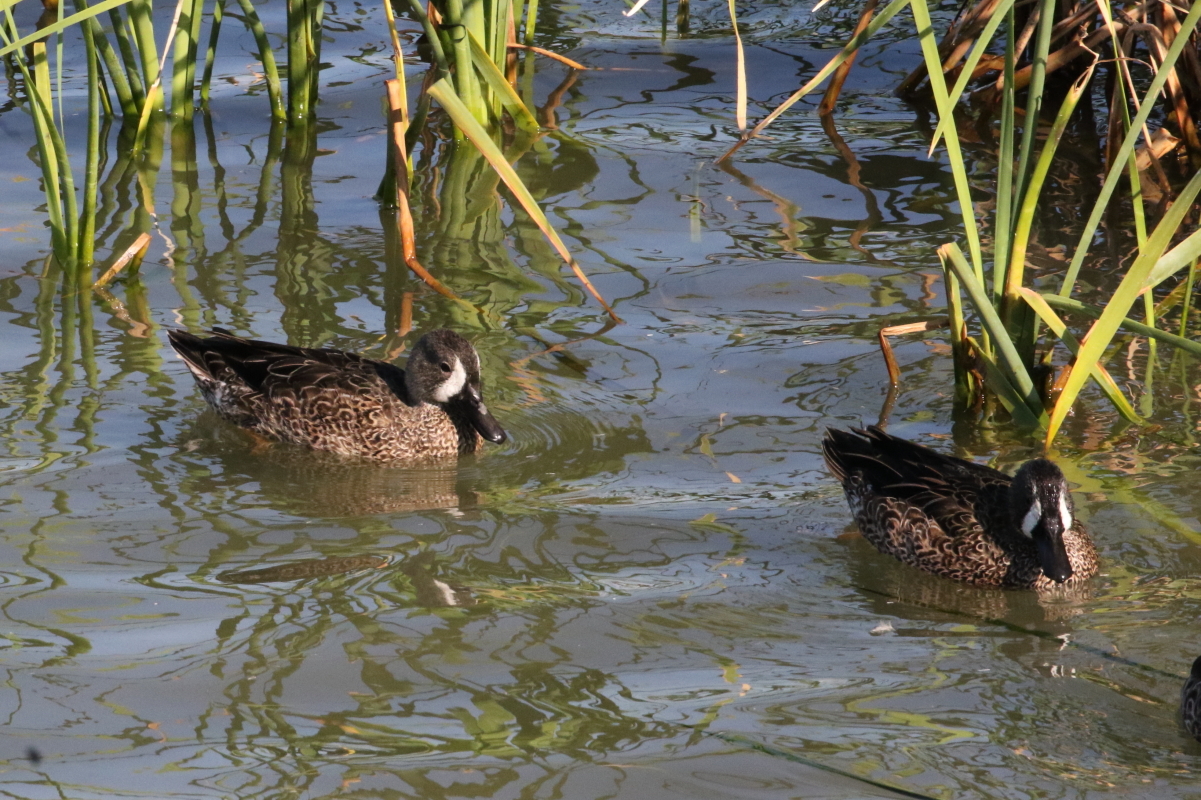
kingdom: Animalia
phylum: Chordata
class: Aves
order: Anseriformes
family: Anatidae
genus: Spatula
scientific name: Spatula discors
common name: Blue-winged teal
